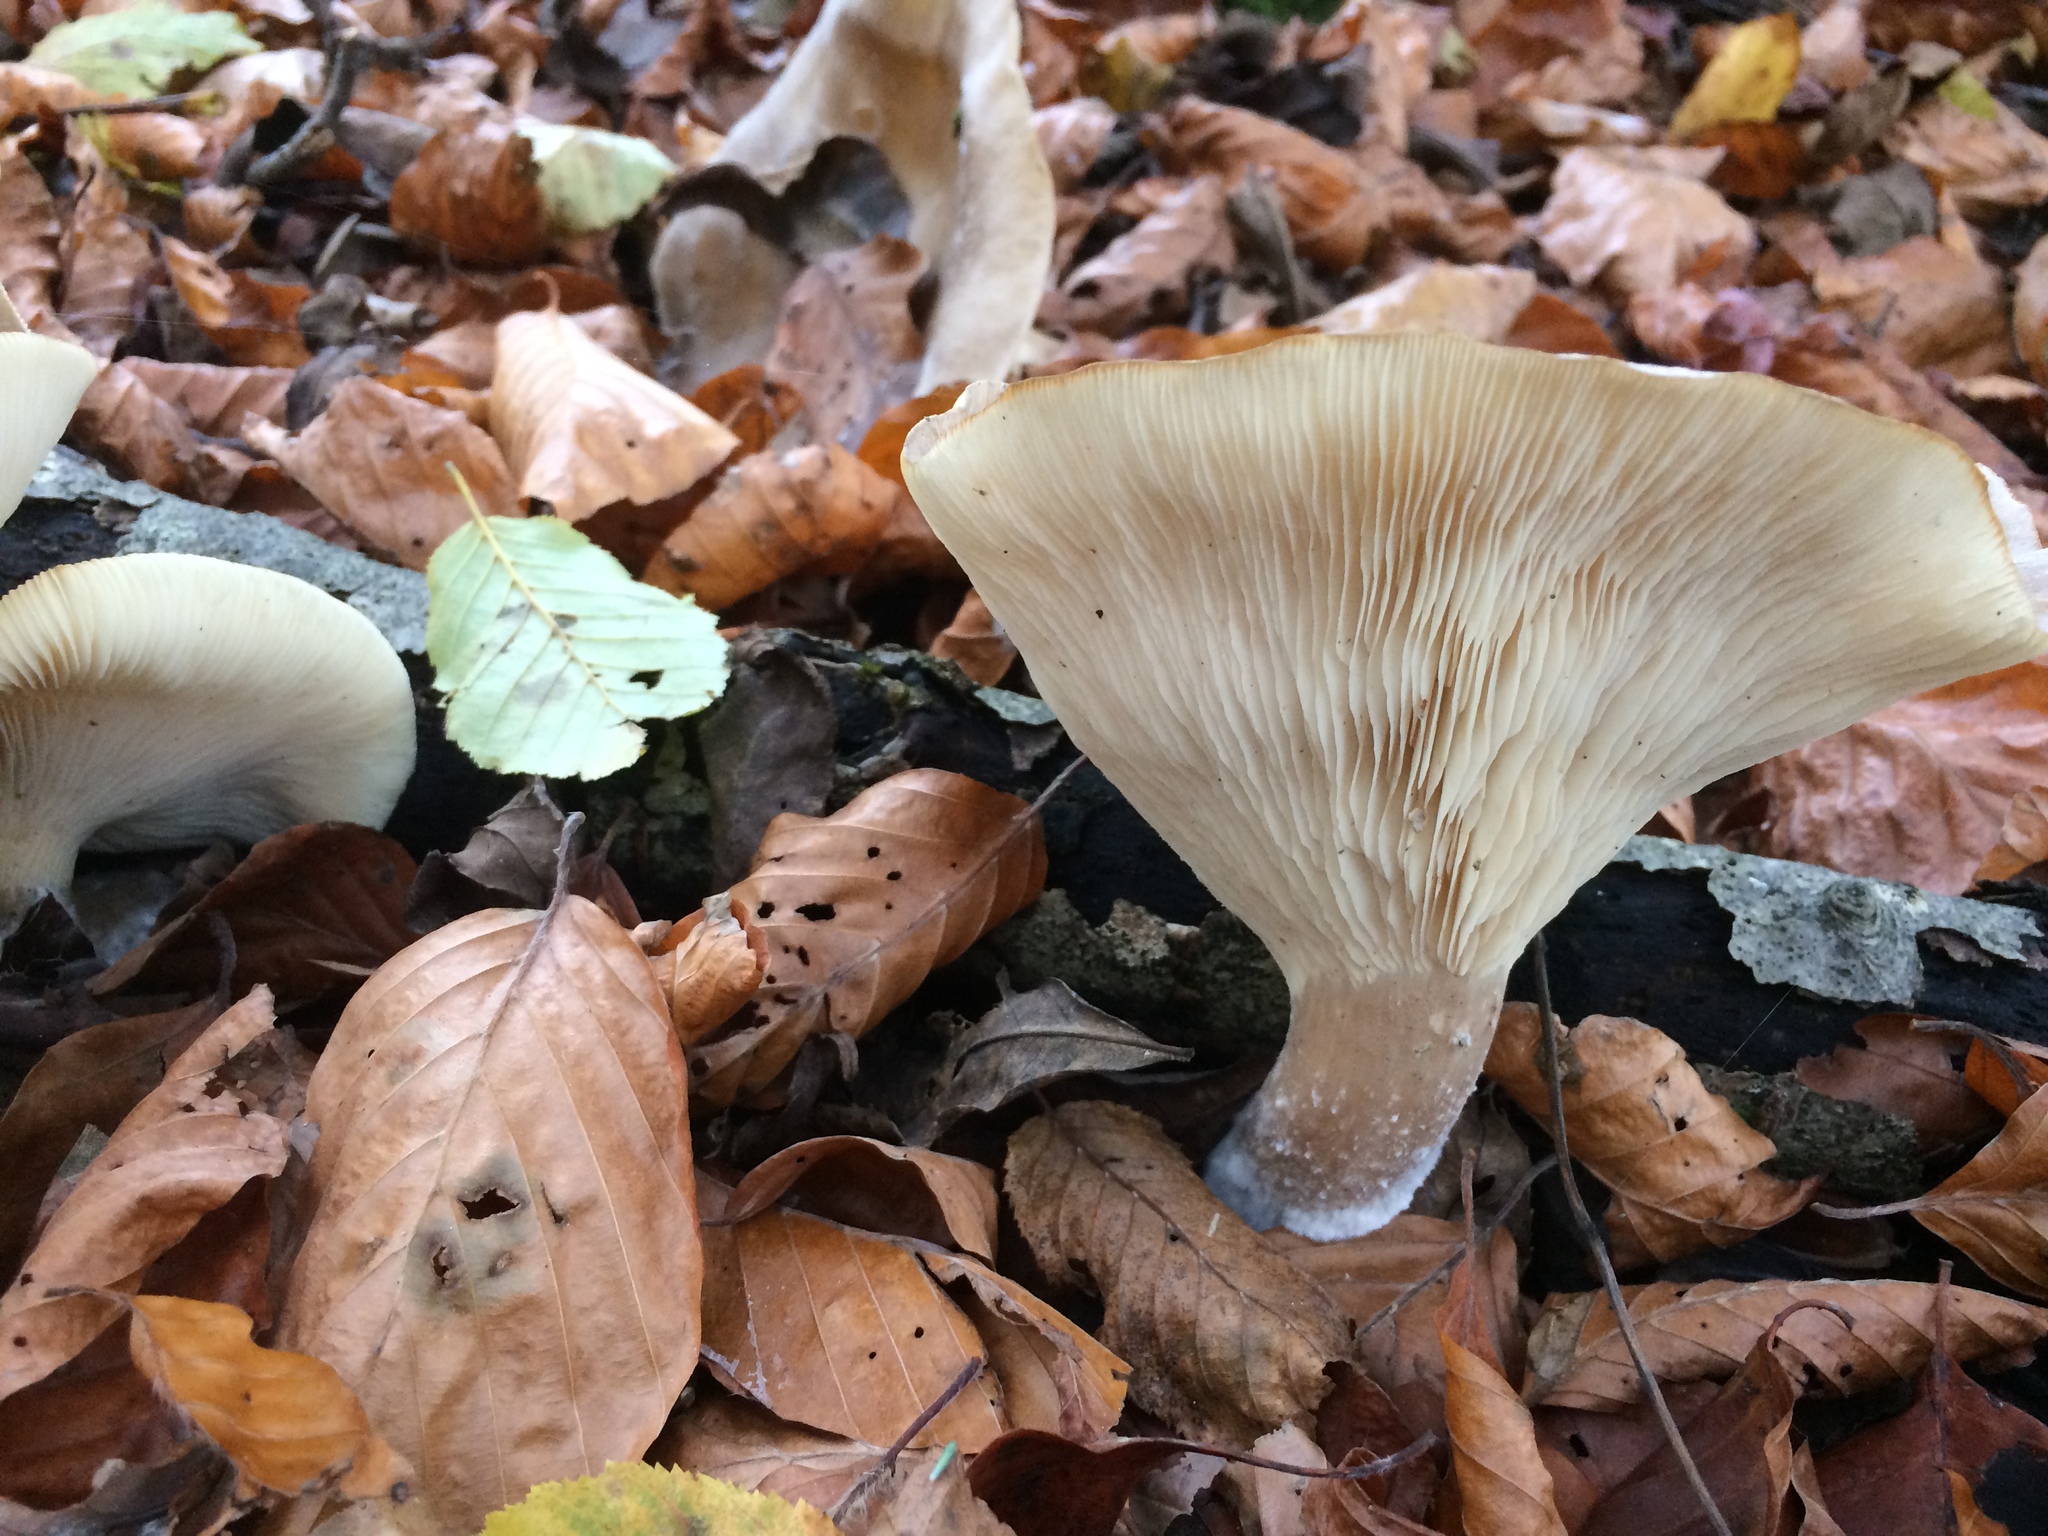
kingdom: Fungi
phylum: Basidiomycota
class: Agaricomycetes
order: Agaricales
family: Tricholomataceae
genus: Clitocybe
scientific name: Clitocybe nebularis
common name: Clouded agaric
